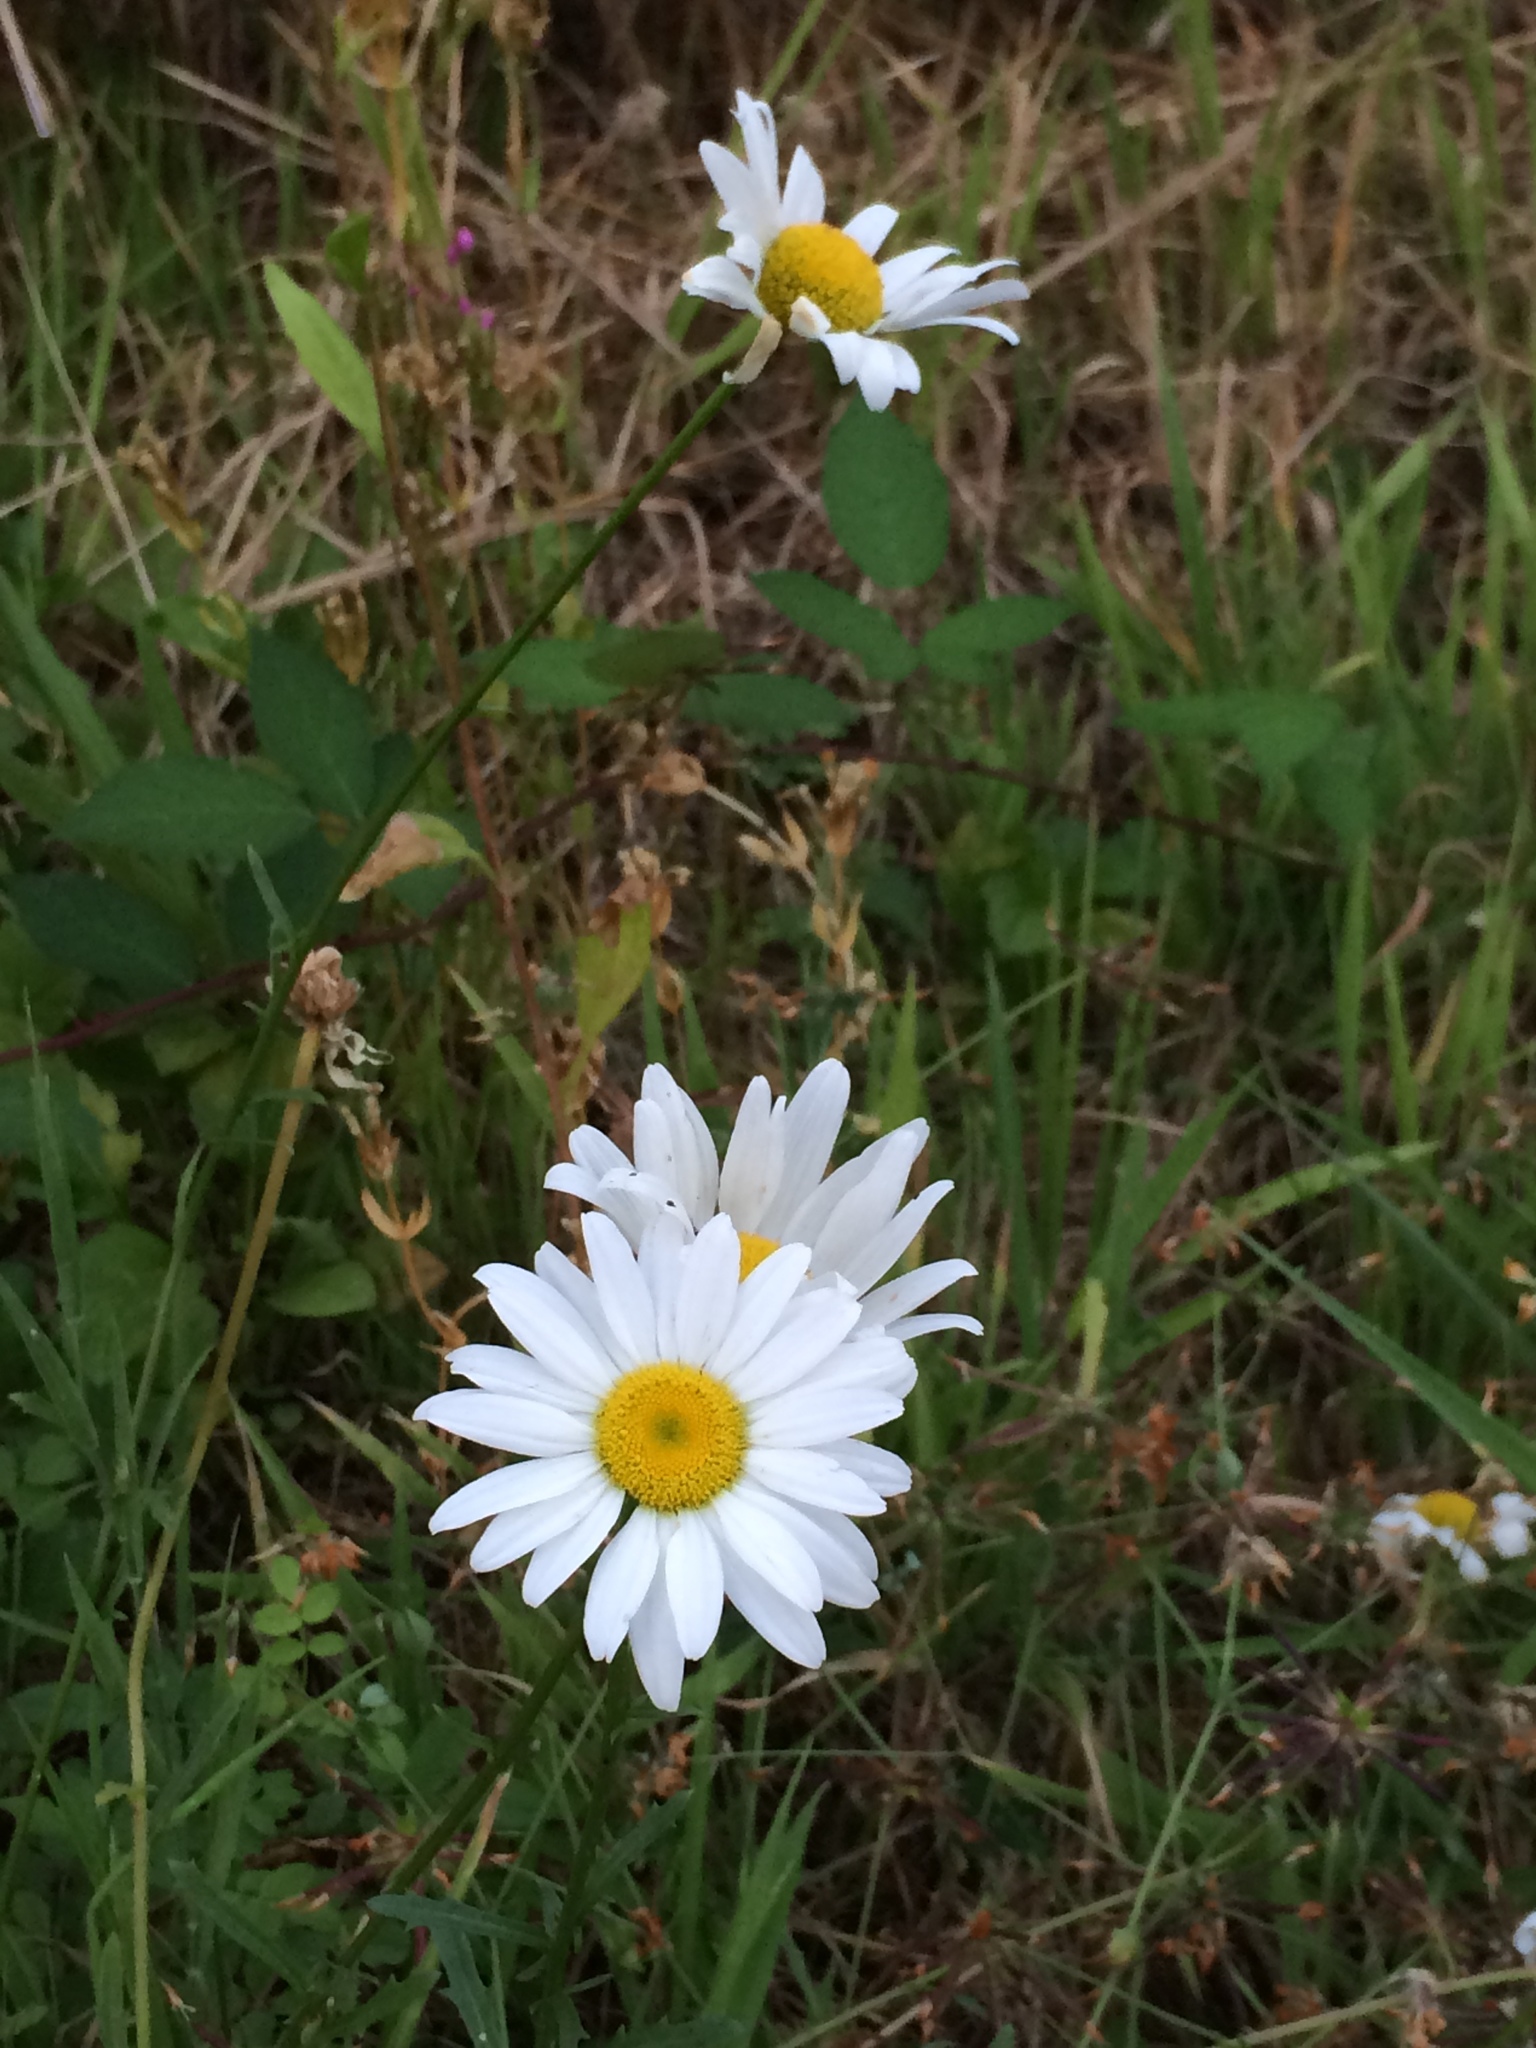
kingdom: Plantae
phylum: Tracheophyta
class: Magnoliopsida
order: Asterales
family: Asteraceae
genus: Leucanthemum
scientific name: Leucanthemum vulgare
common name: Oxeye daisy
